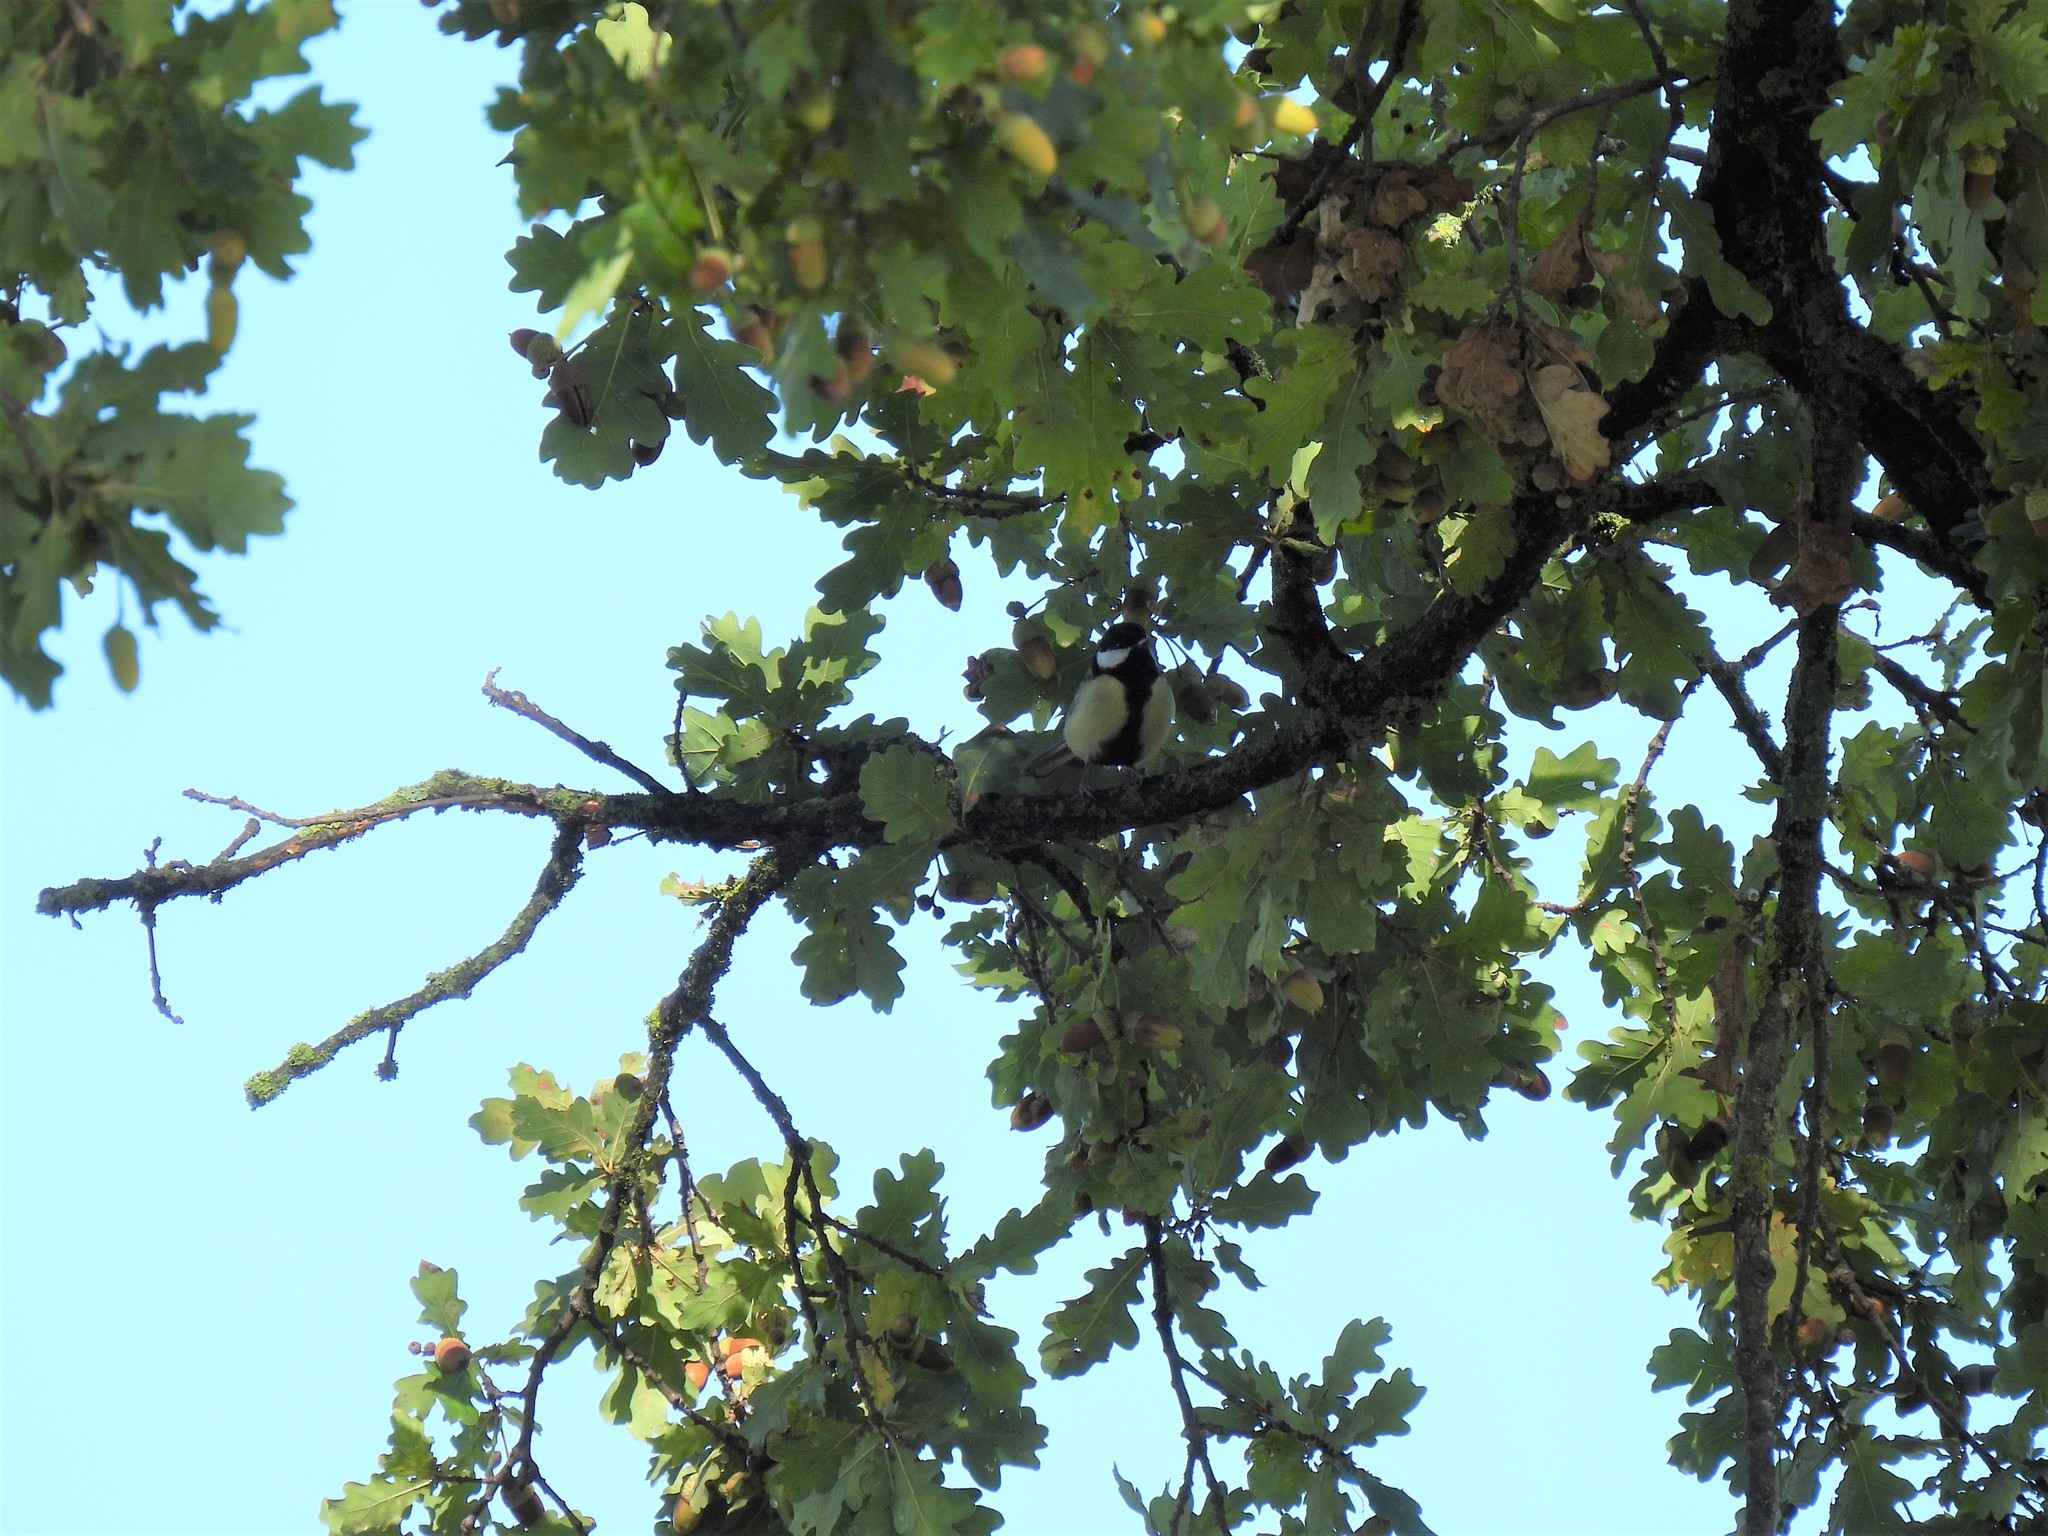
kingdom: Animalia
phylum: Chordata
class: Aves
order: Passeriformes
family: Paridae
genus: Parus
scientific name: Parus major
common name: Great tit
